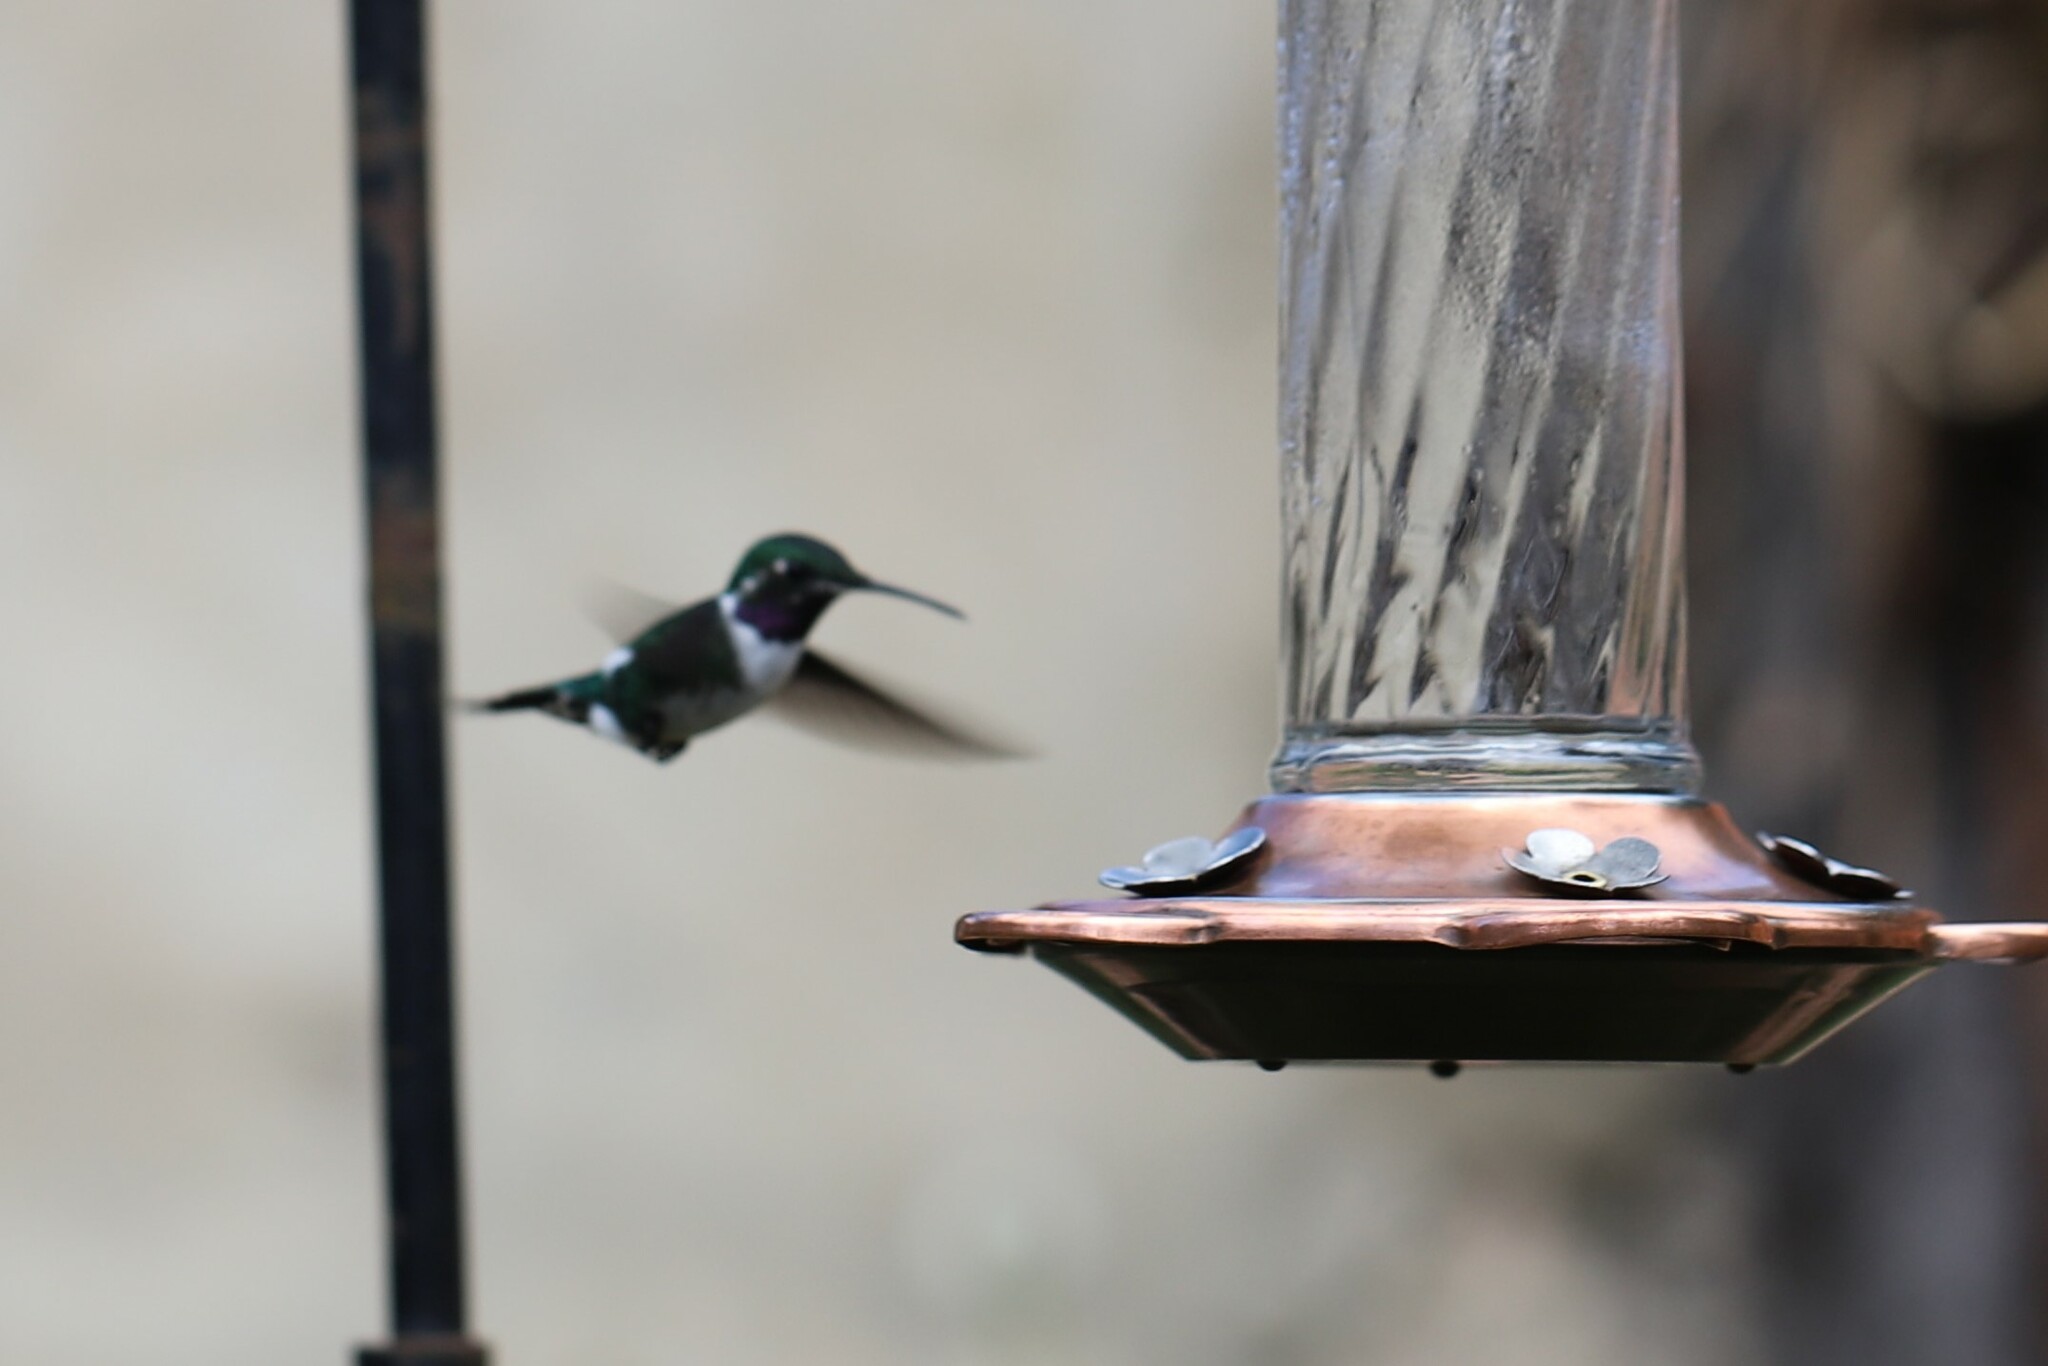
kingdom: Animalia
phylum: Chordata
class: Aves
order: Apodiformes
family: Trochilidae
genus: Chaetocercus
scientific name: Chaetocercus mulsant
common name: White-bellied woodstar
